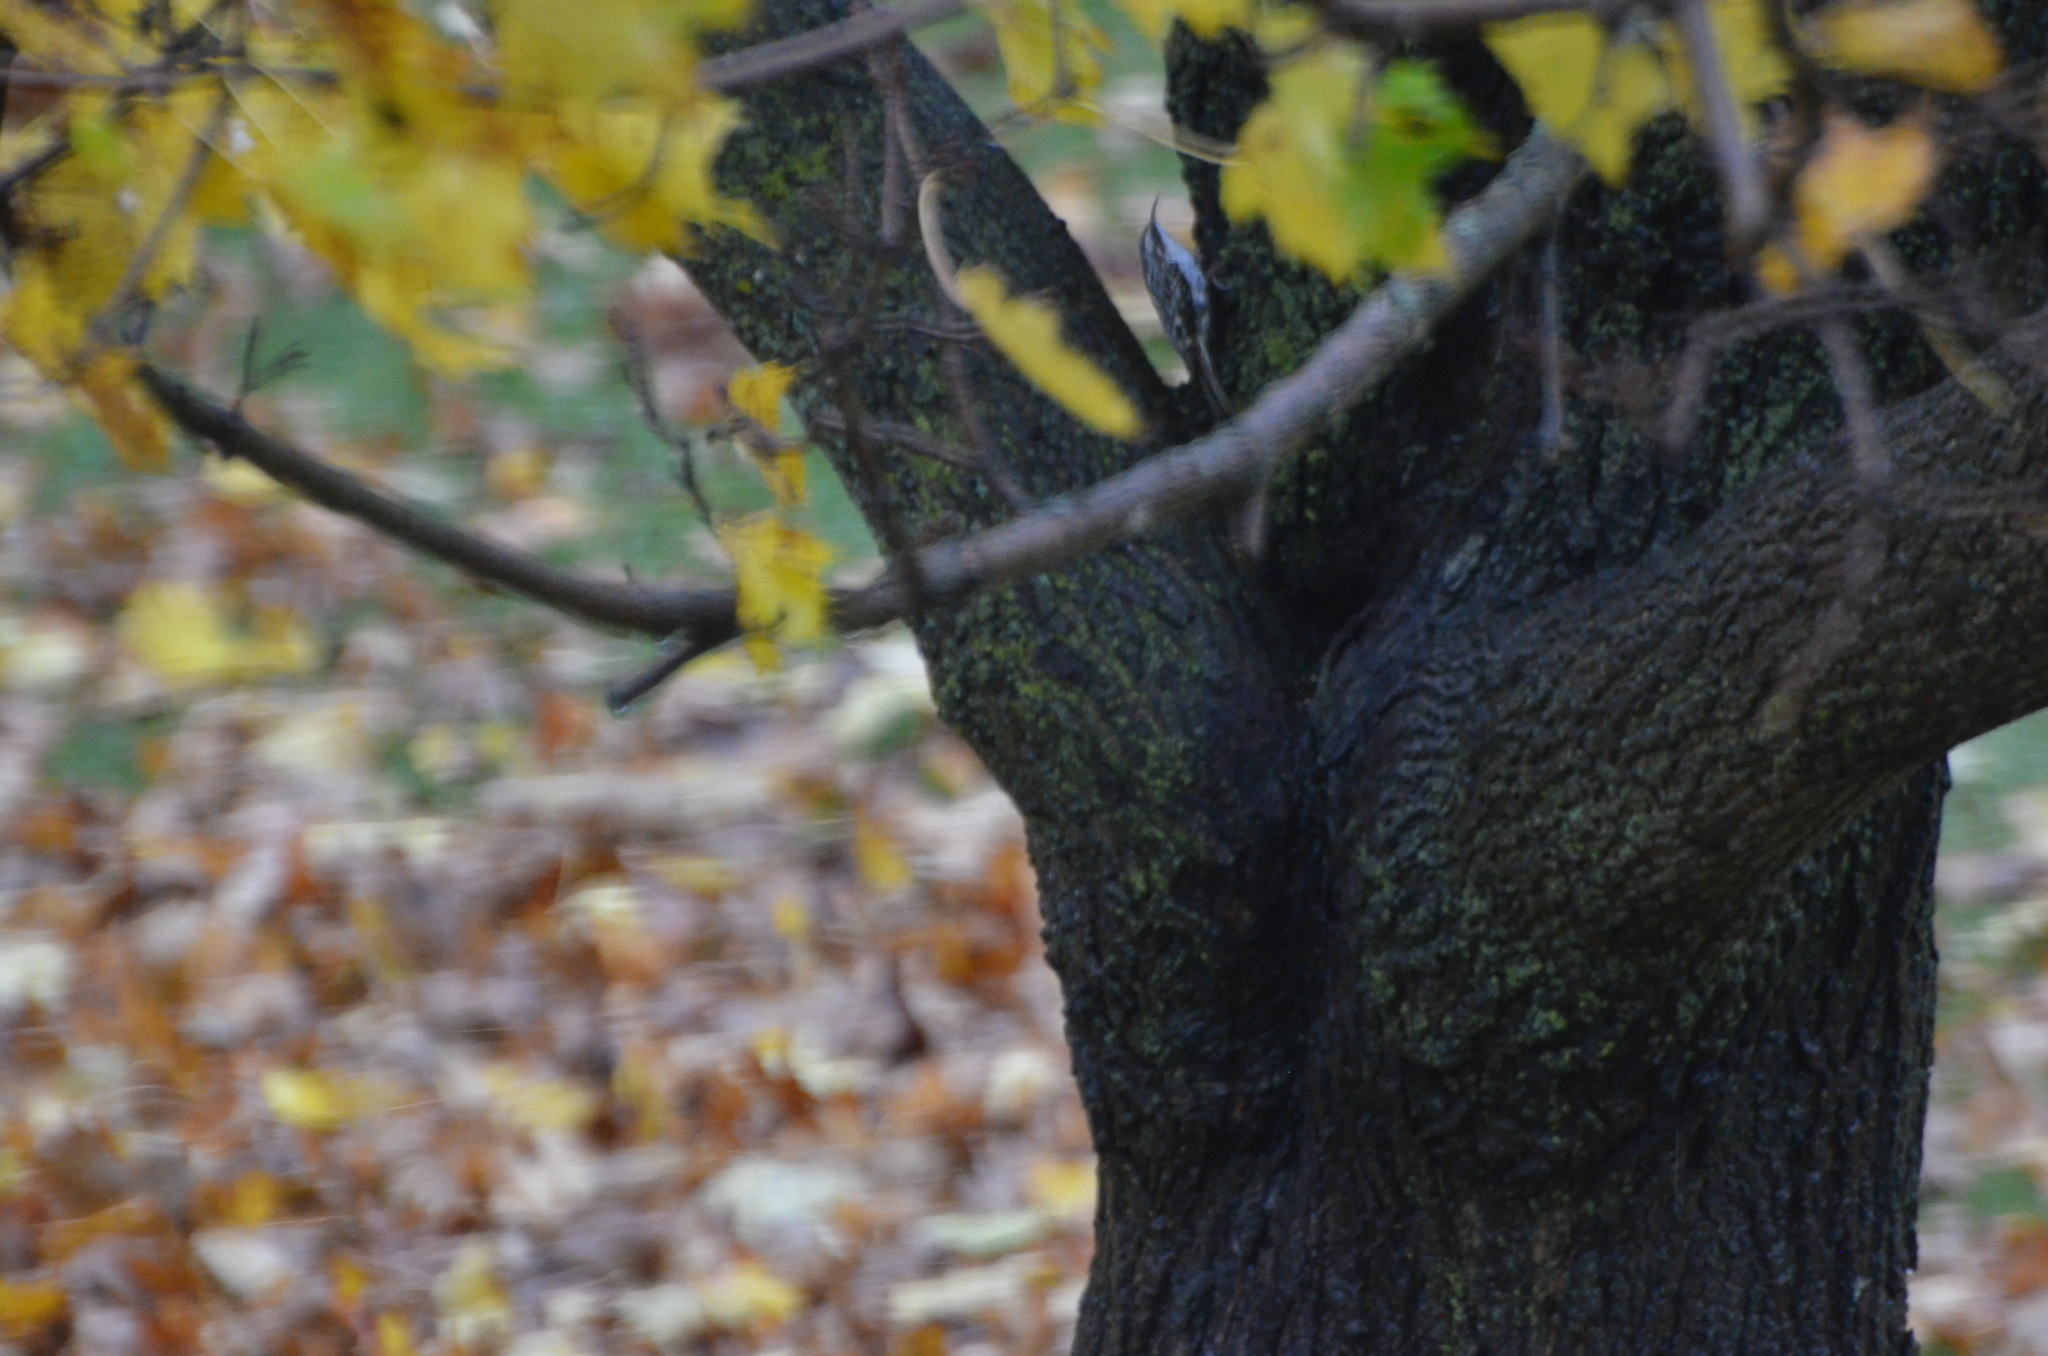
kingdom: Animalia
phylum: Chordata
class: Aves
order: Passeriformes
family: Certhiidae
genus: Certhia
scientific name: Certhia americana
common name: Brown creeper
